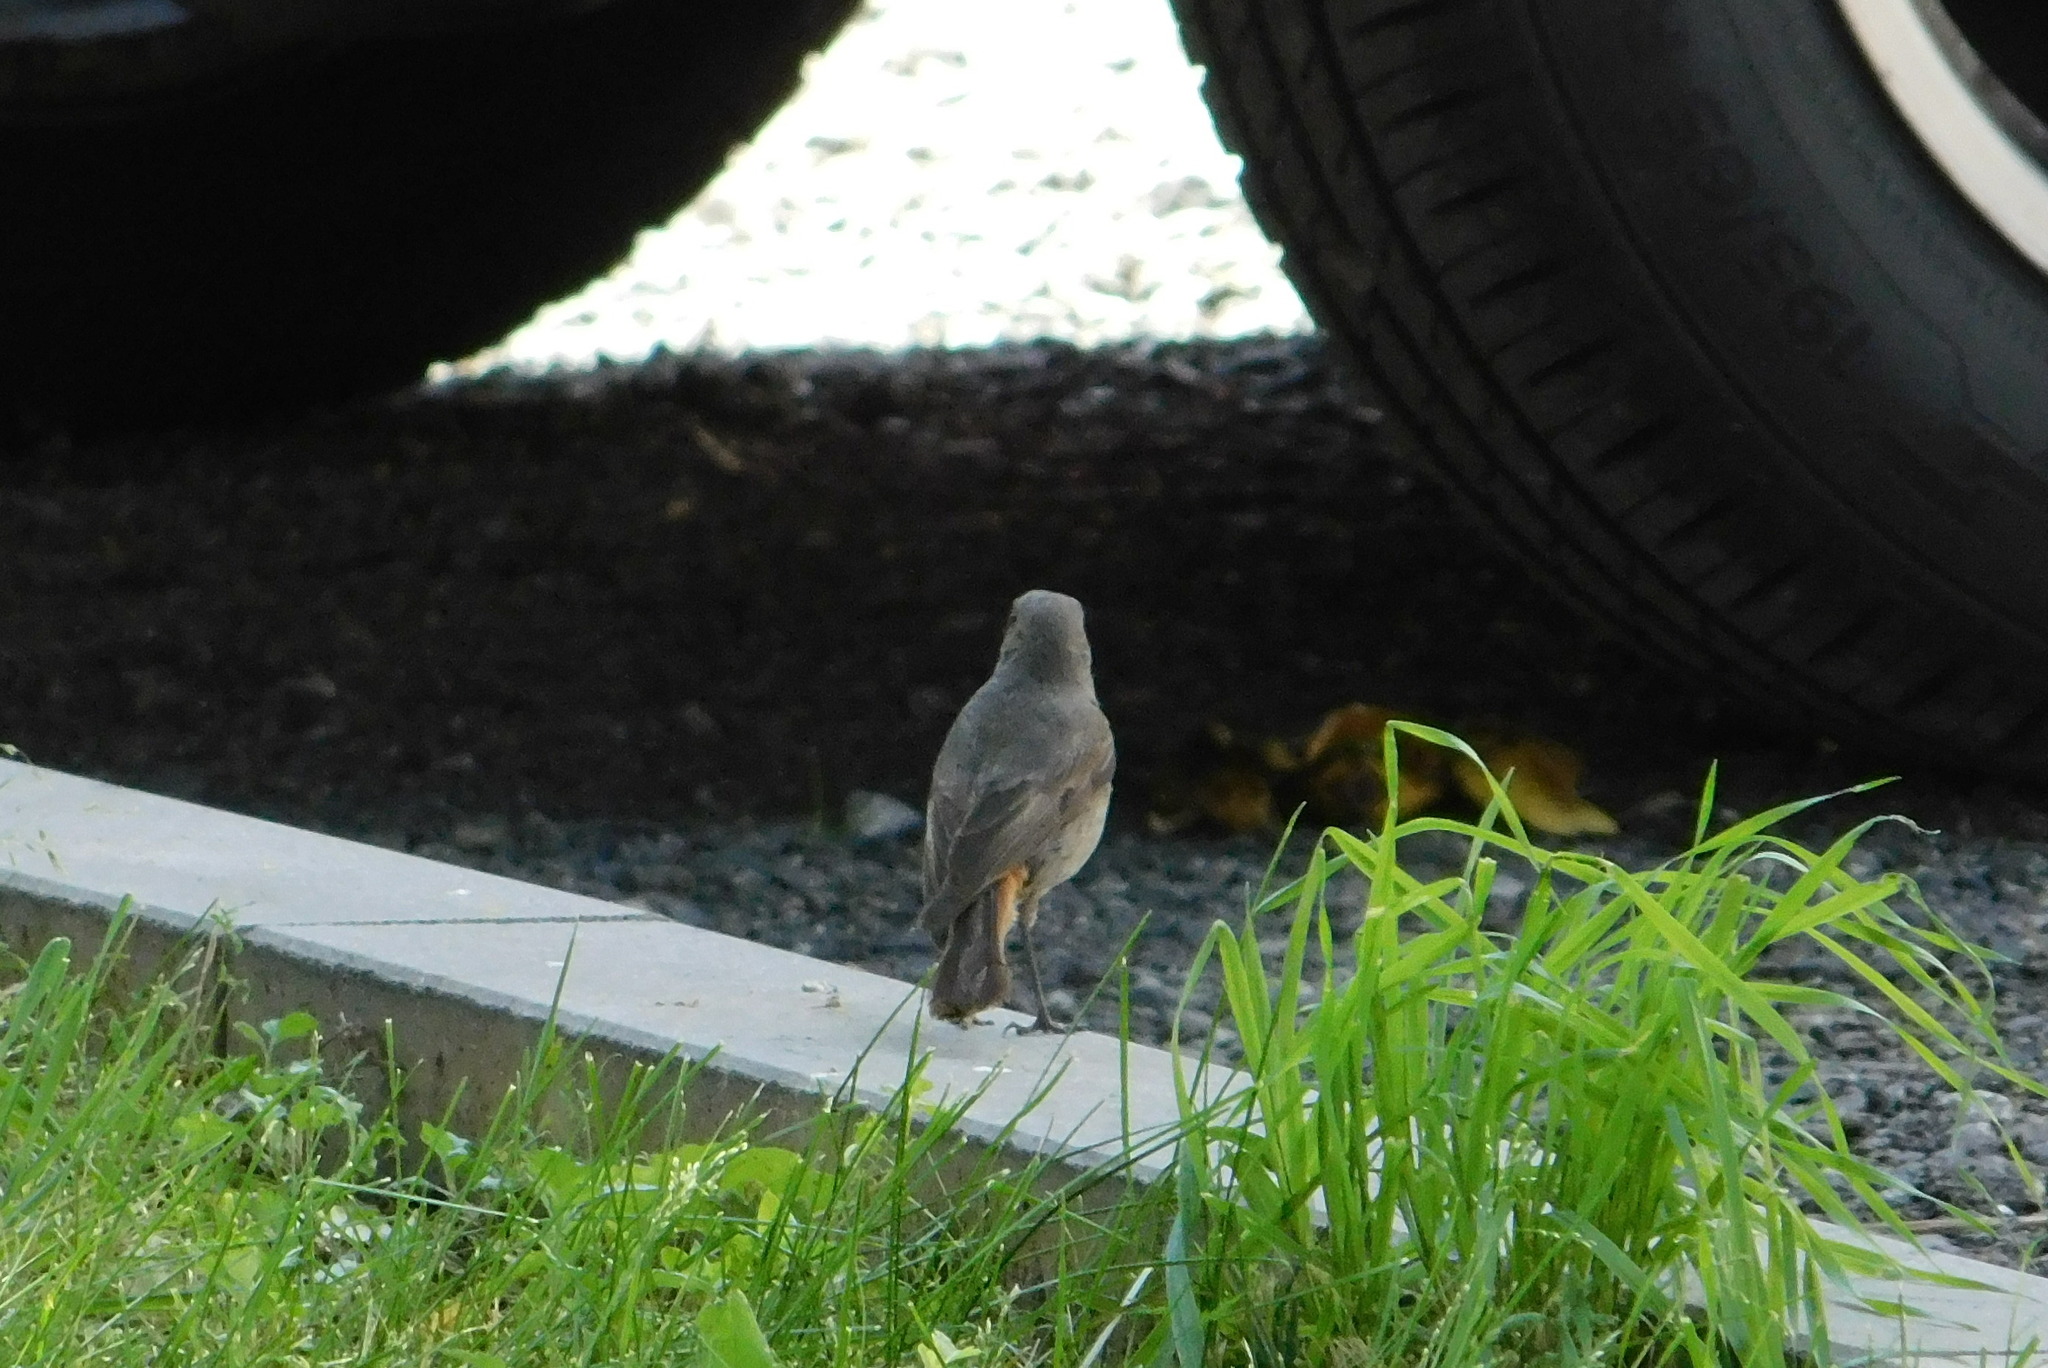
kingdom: Animalia
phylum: Chordata
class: Aves
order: Passeriformes
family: Muscicapidae
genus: Phoenicurus
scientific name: Phoenicurus ochruros
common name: Black redstart
